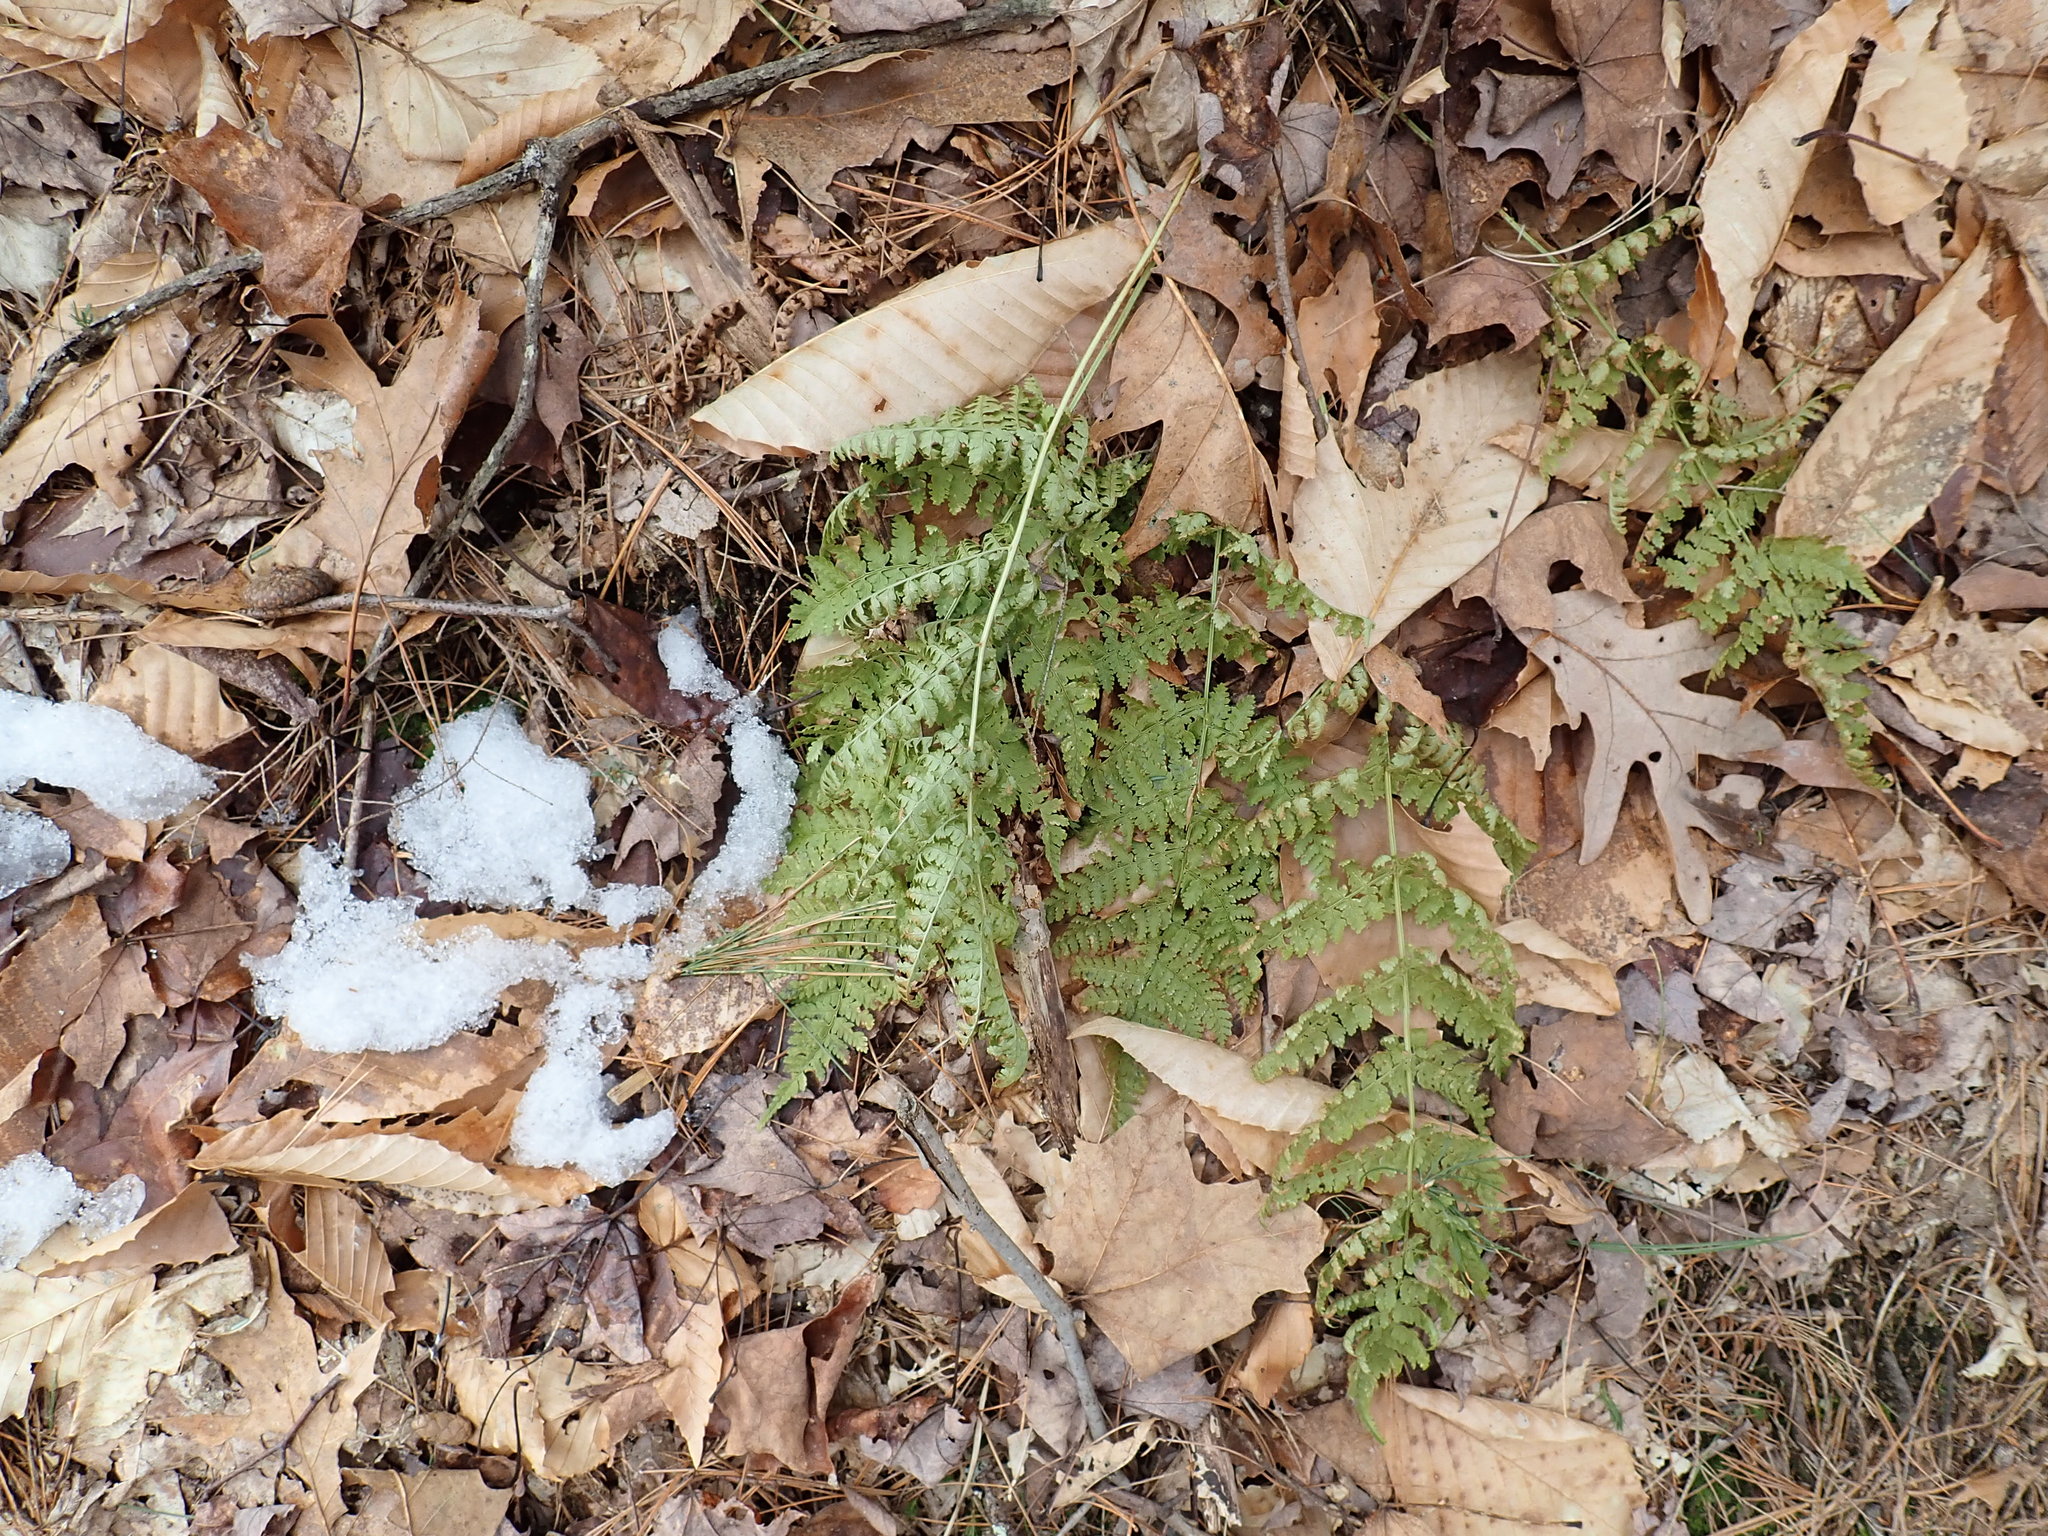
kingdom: Plantae
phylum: Tracheophyta
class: Polypodiopsida
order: Polypodiales
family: Dryopteridaceae
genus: Dryopteris
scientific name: Dryopteris intermedia
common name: Evergreen wood fern
